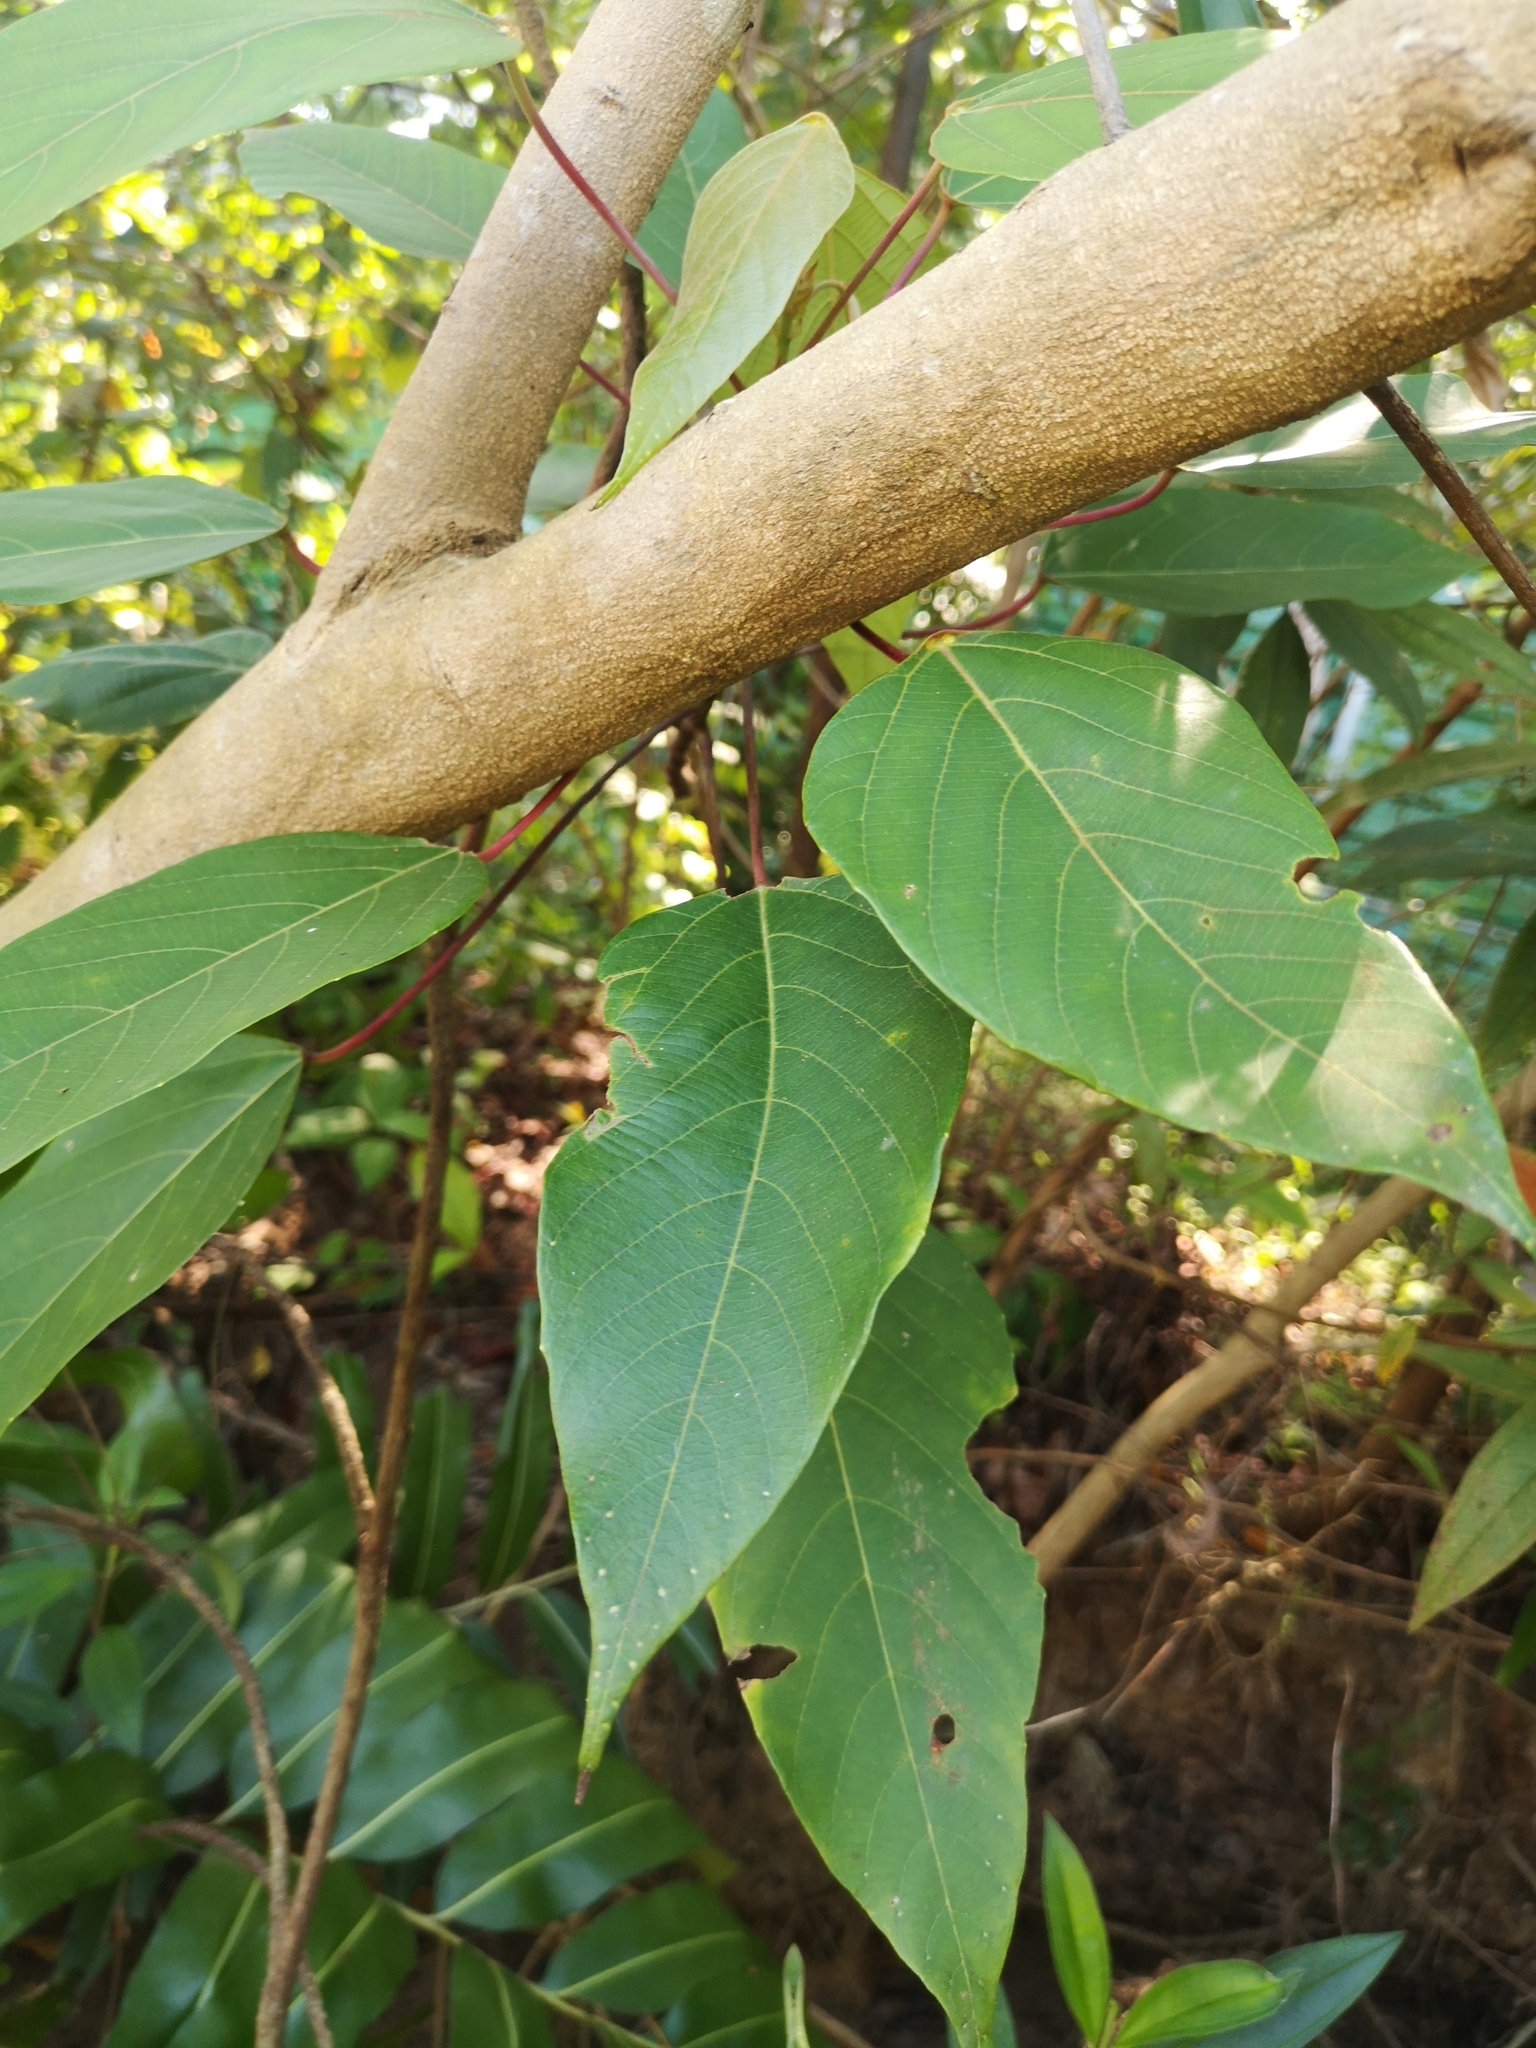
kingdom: Plantae
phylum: Tracheophyta
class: Magnoliopsida
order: Malpighiales
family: Euphorbiaceae
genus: Macaranga
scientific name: Macaranga heynei
